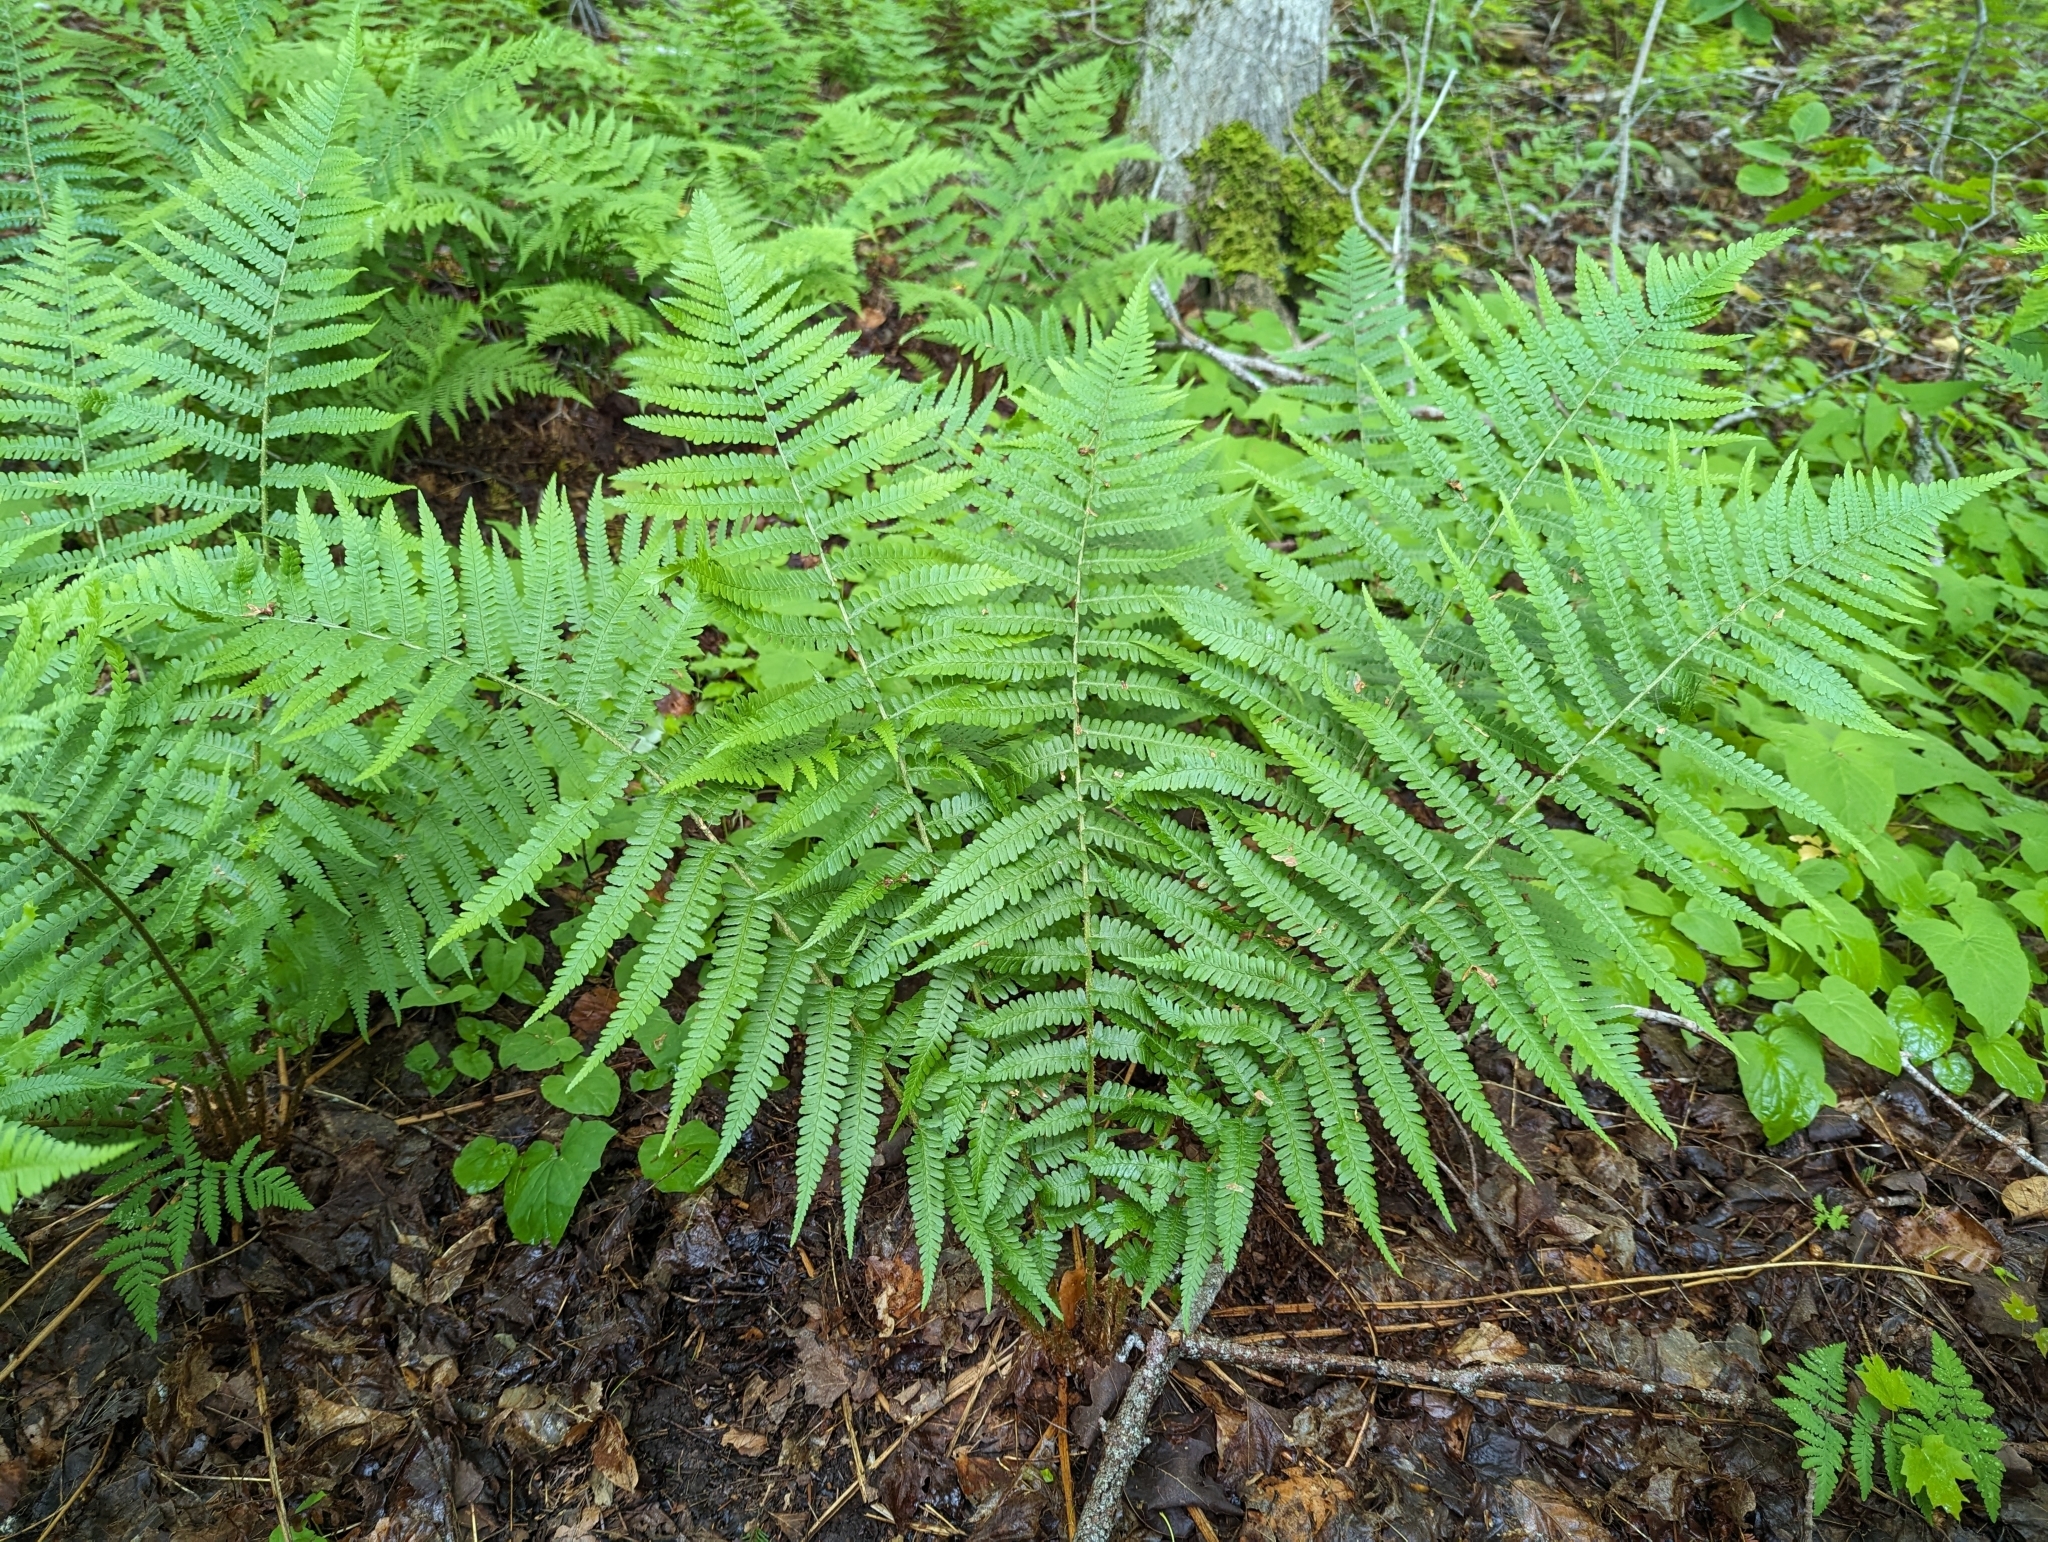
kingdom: Plantae
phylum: Tracheophyta
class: Polypodiopsida
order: Polypodiales
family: Dryopteridaceae
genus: Dryopteris
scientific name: Dryopteris filix-mas
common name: Male fern
